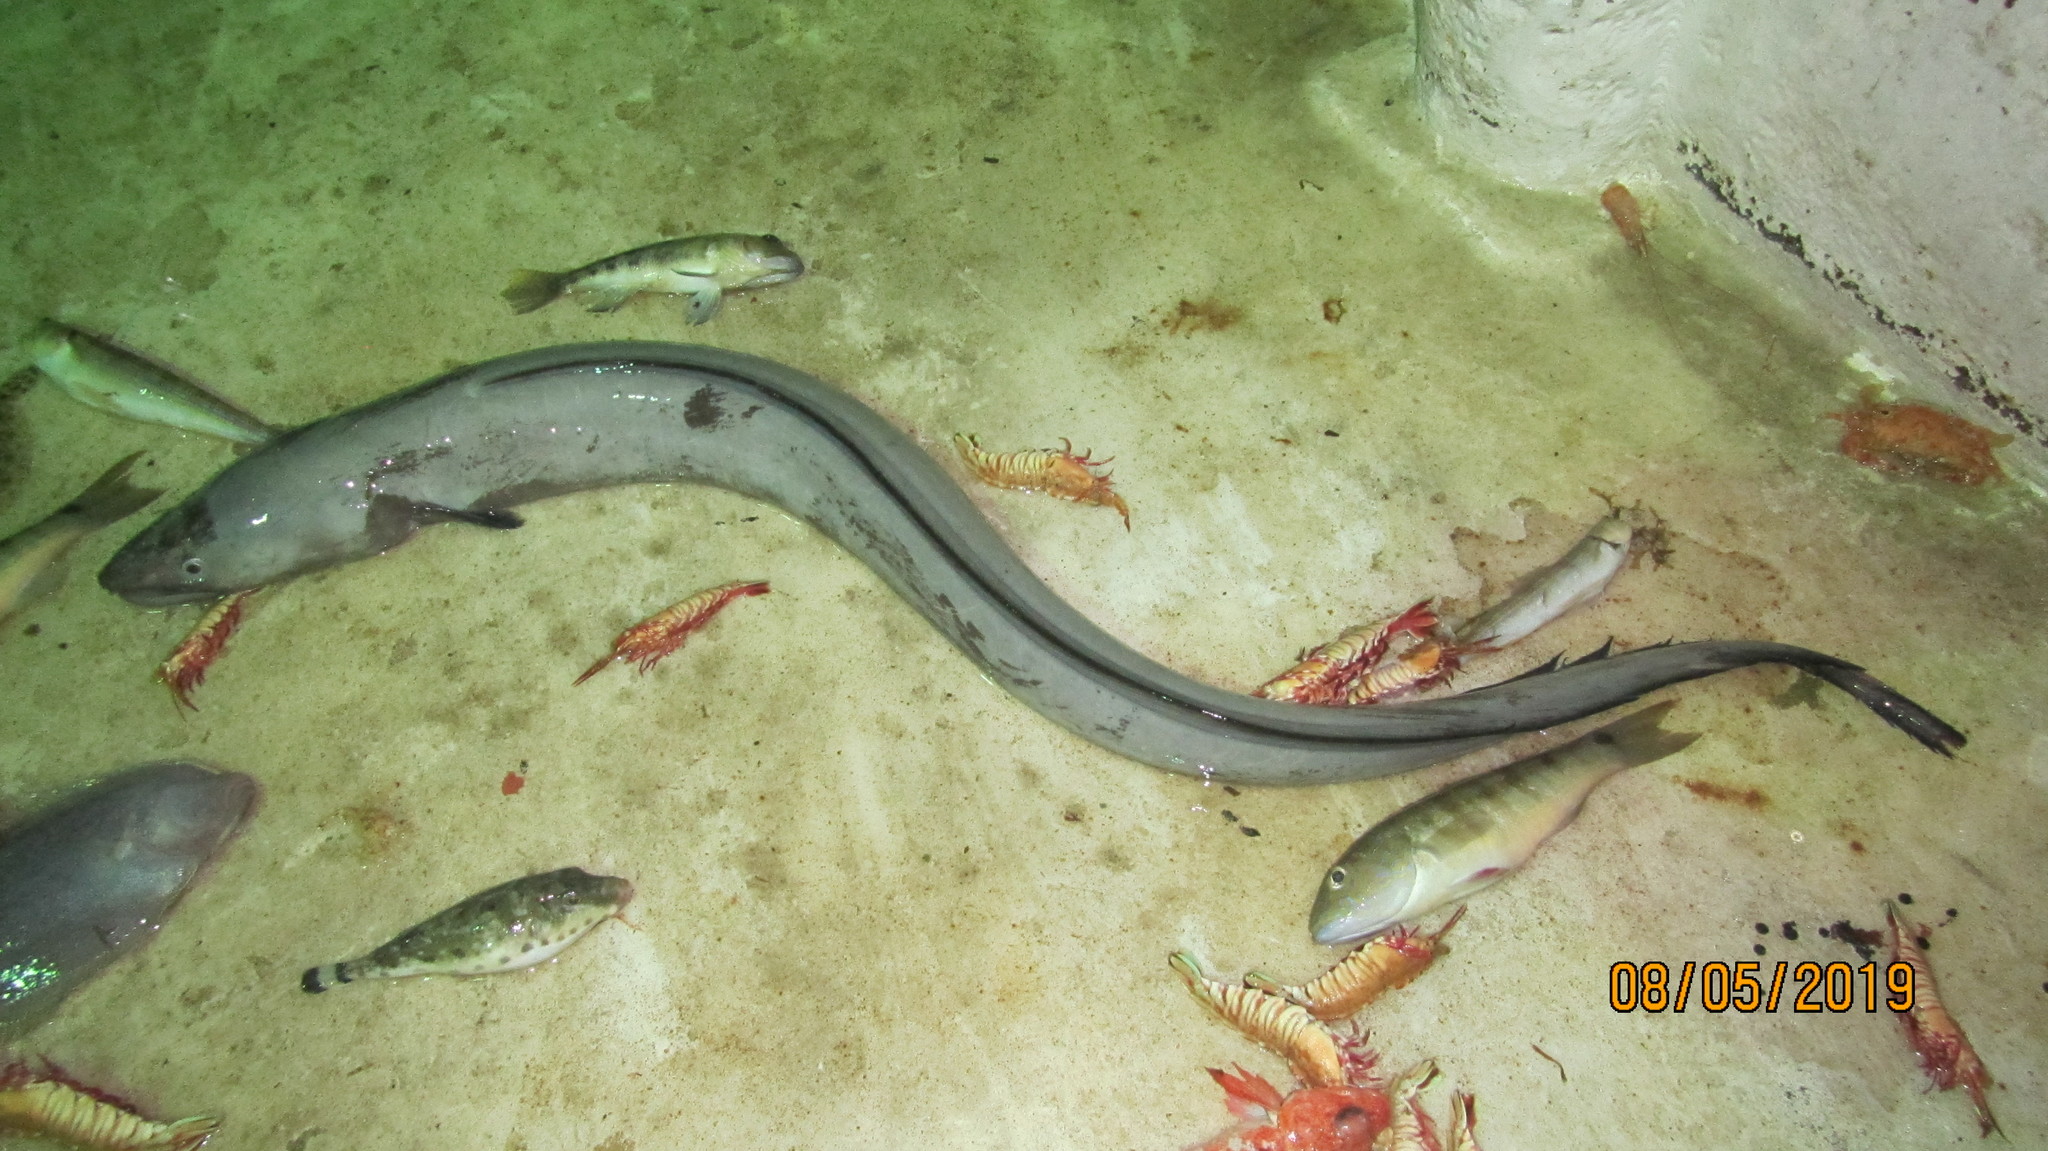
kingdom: Animalia
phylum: Chordata
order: Anguilliformes
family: Congridae
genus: Conger
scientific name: Conger oceanicus
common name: American conger
